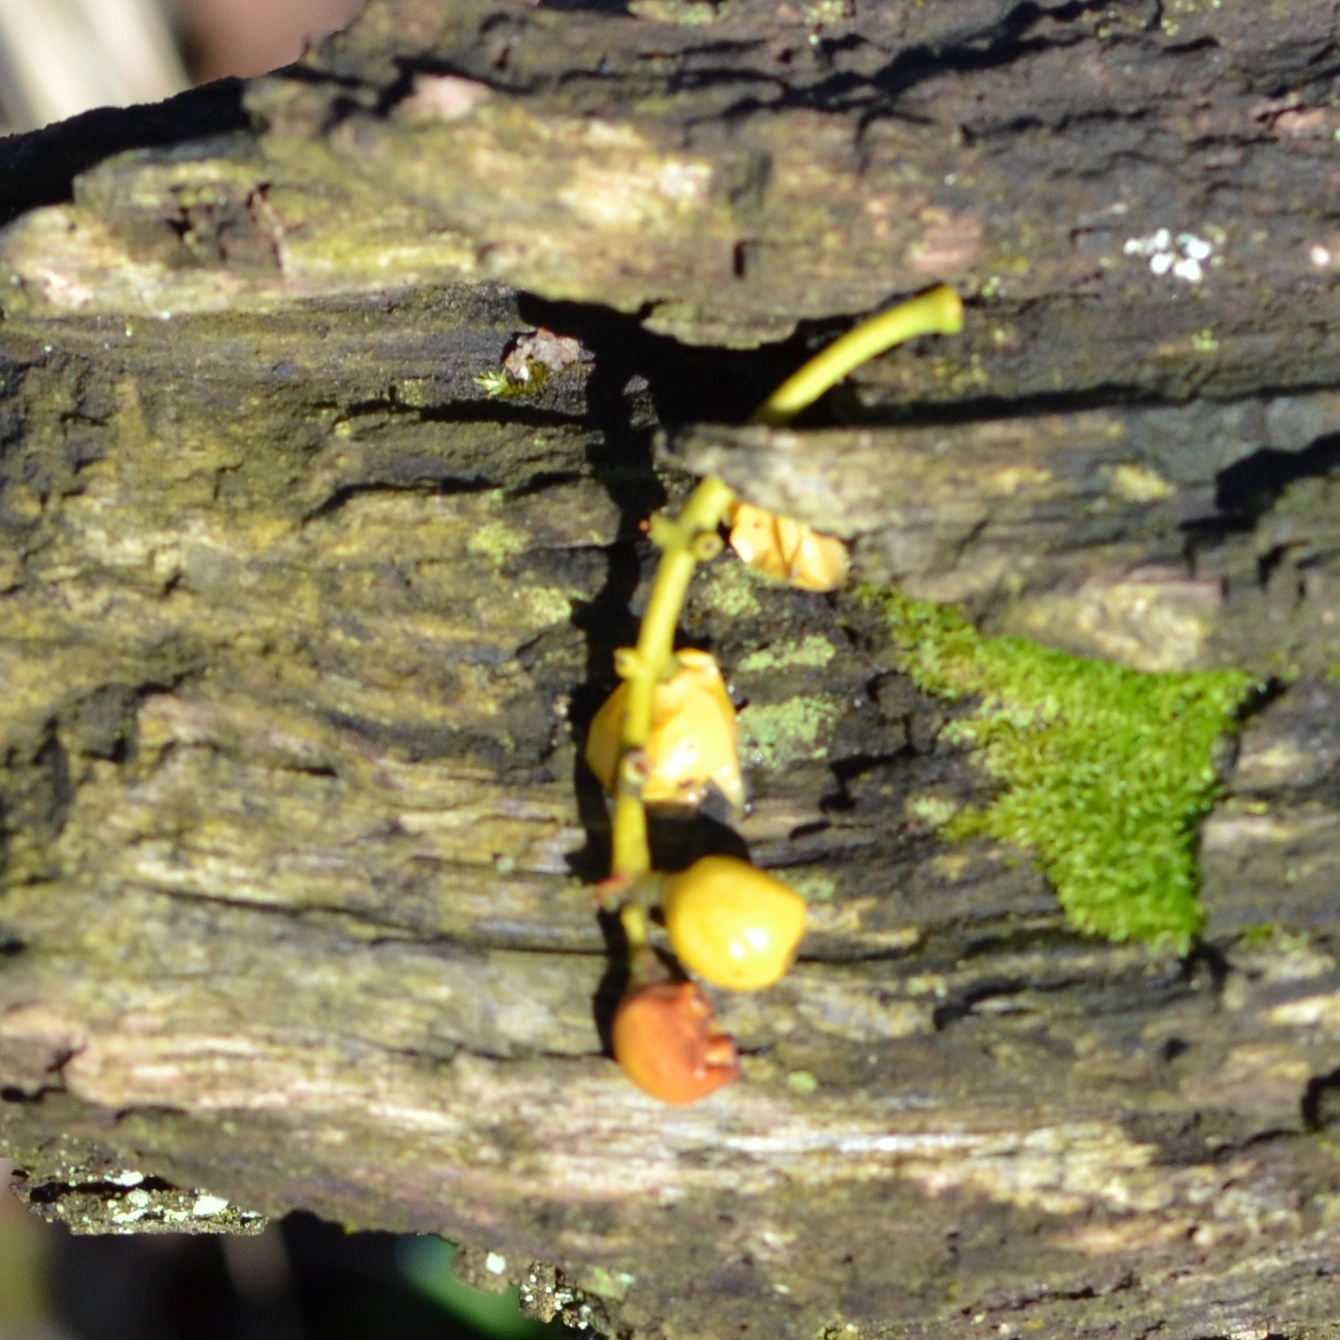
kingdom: Plantae
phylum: Tracheophyta
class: Magnoliopsida
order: Santalales
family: Loranthaceae
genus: Loranthus
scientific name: Loranthus europaeus
